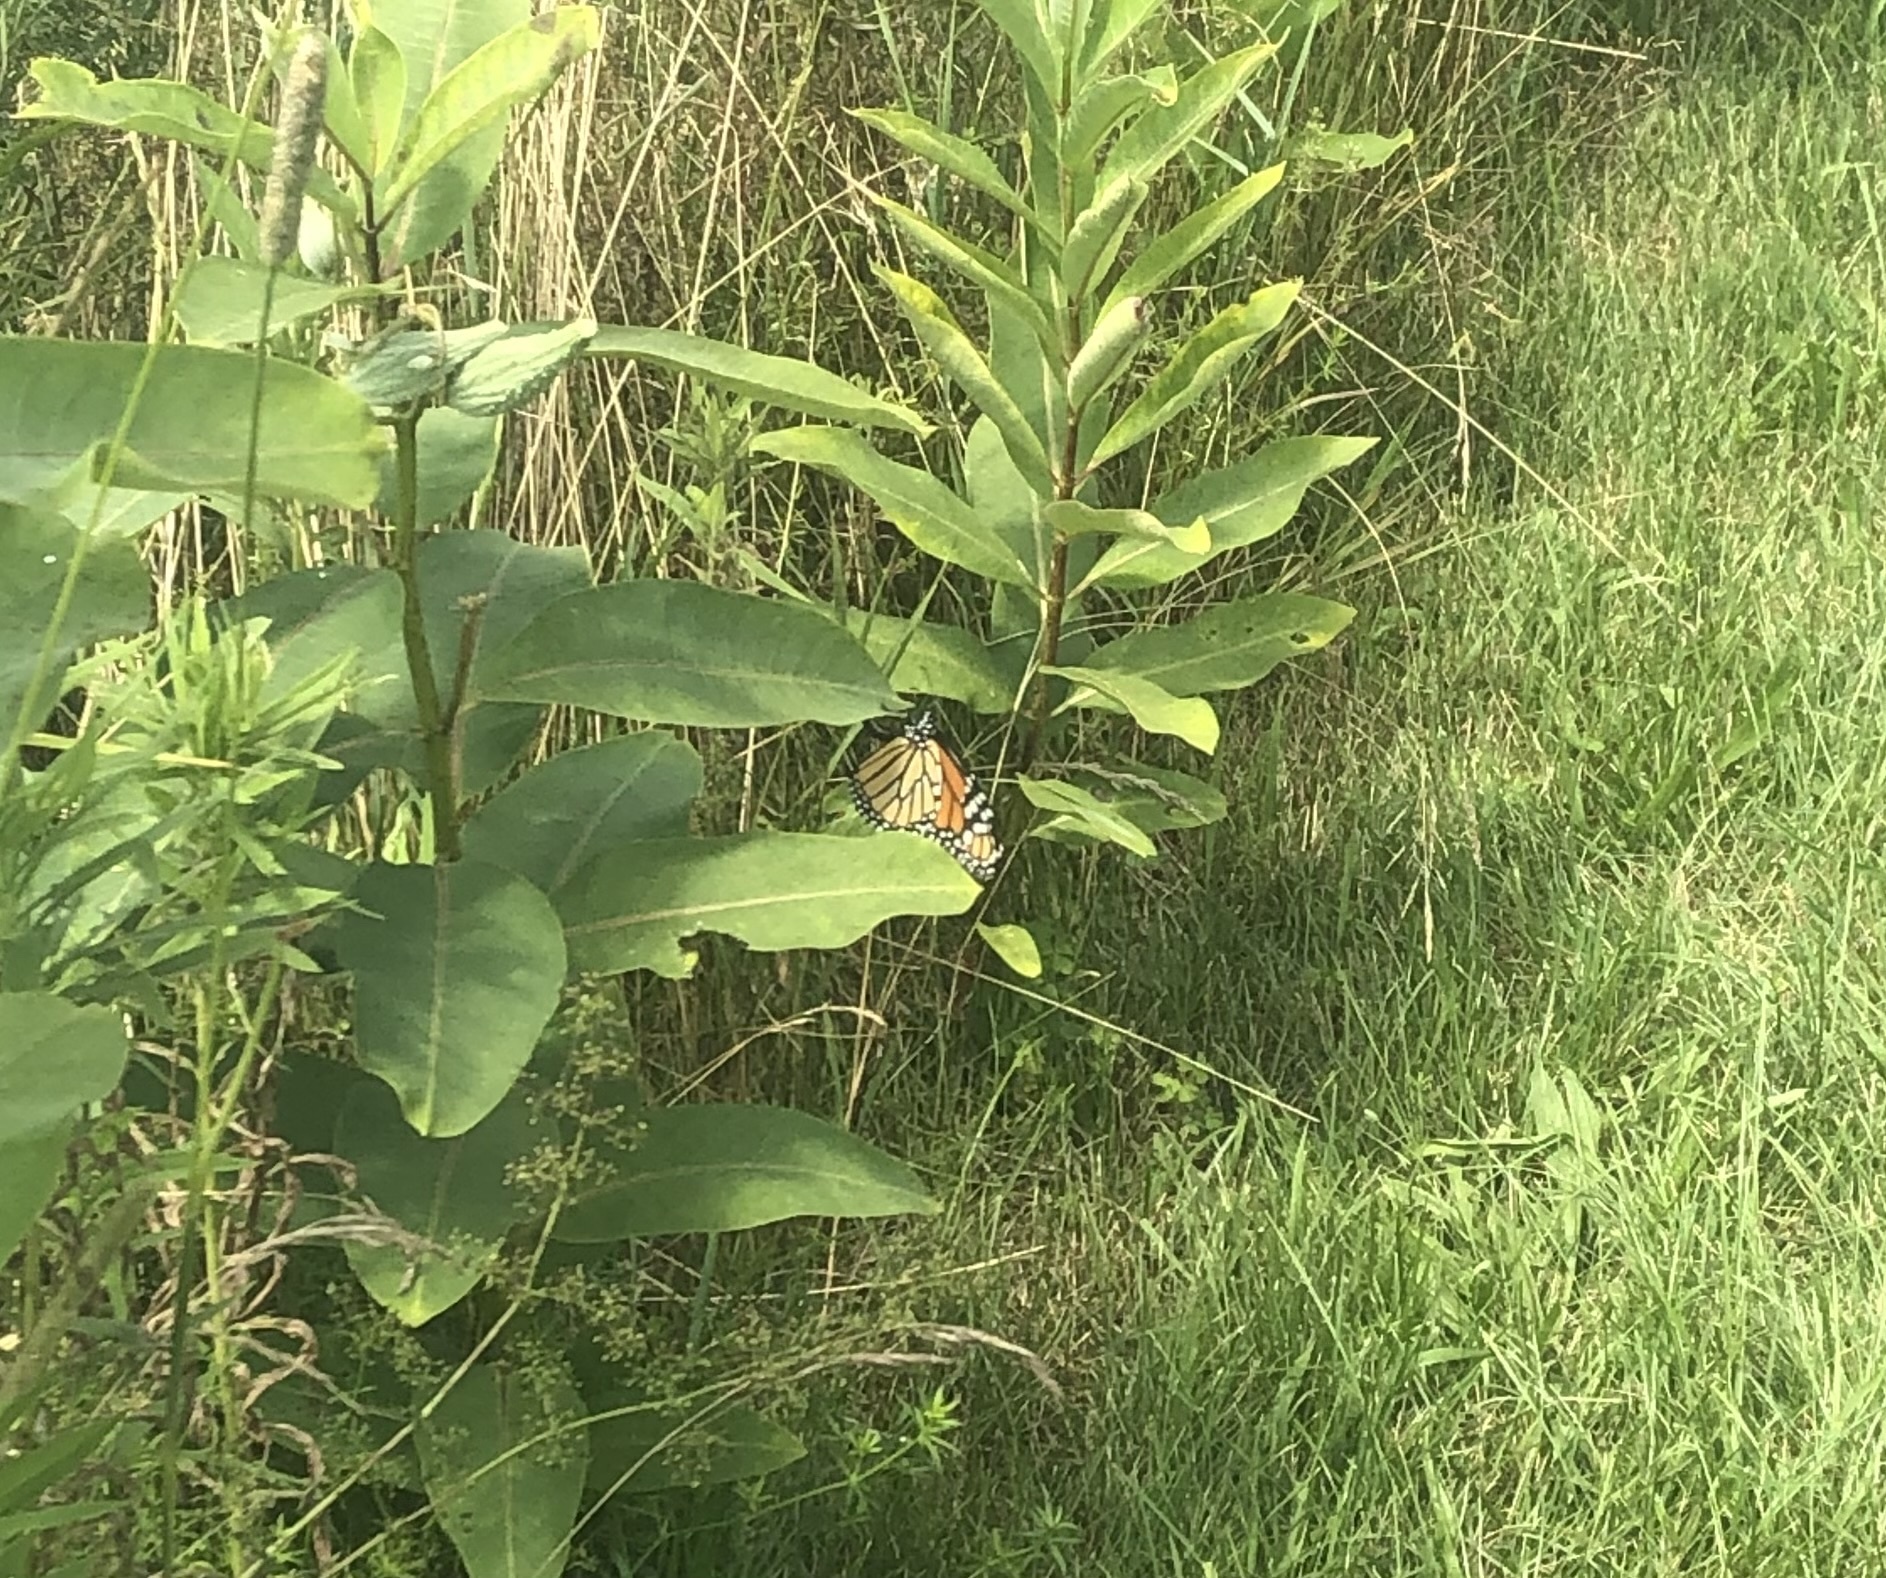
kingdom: Animalia
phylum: Arthropoda
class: Insecta
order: Lepidoptera
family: Nymphalidae
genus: Danaus
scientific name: Danaus plexippus
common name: Monarch
